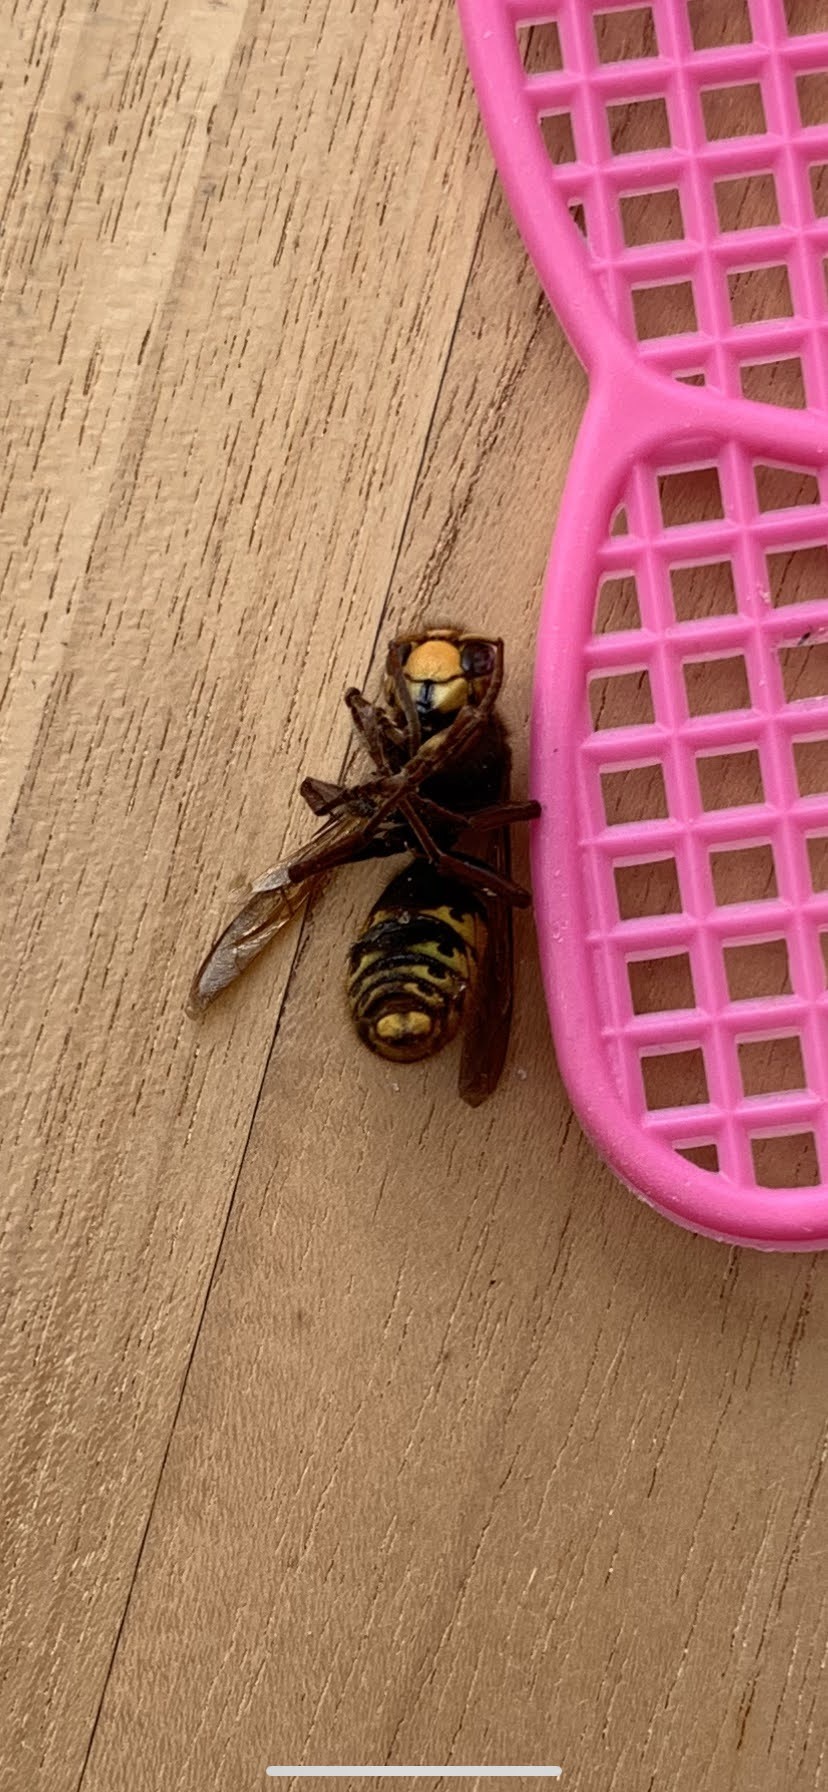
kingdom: Animalia
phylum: Arthropoda
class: Insecta
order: Hymenoptera
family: Vespidae
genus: Vespa
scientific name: Vespa crabro
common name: Hornet
